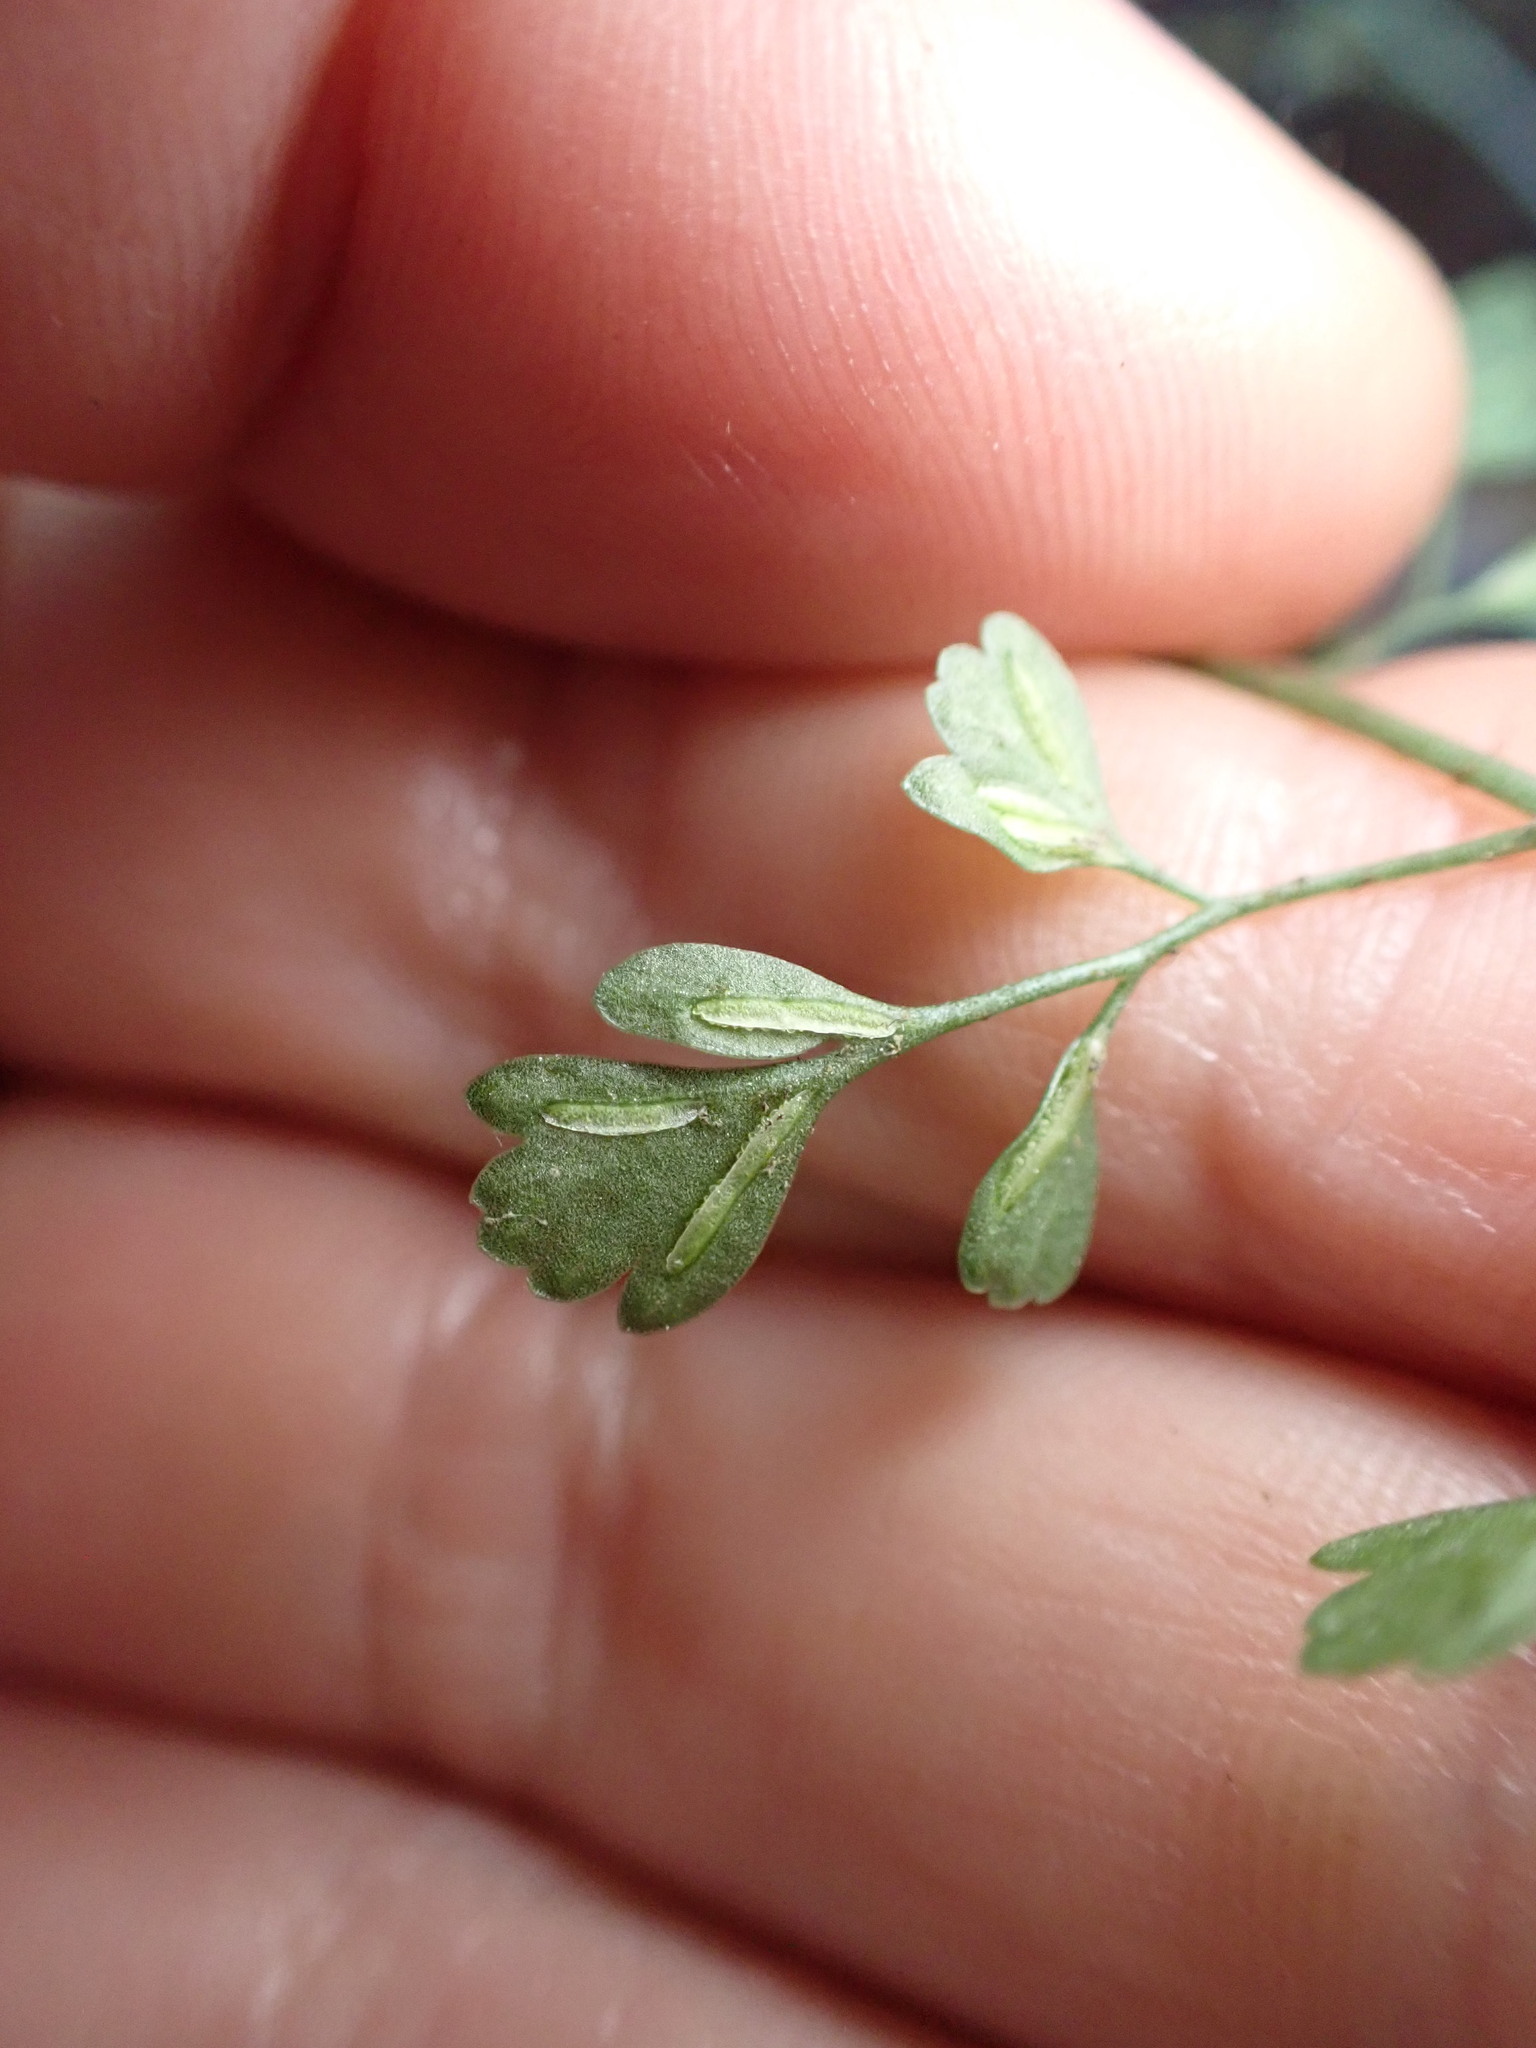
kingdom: Plantae
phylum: Tracheophyta
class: Polypodiopsida
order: Polypodiales
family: Aspleniaceae
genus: Asplenium
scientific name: Asplenium hookerianum
